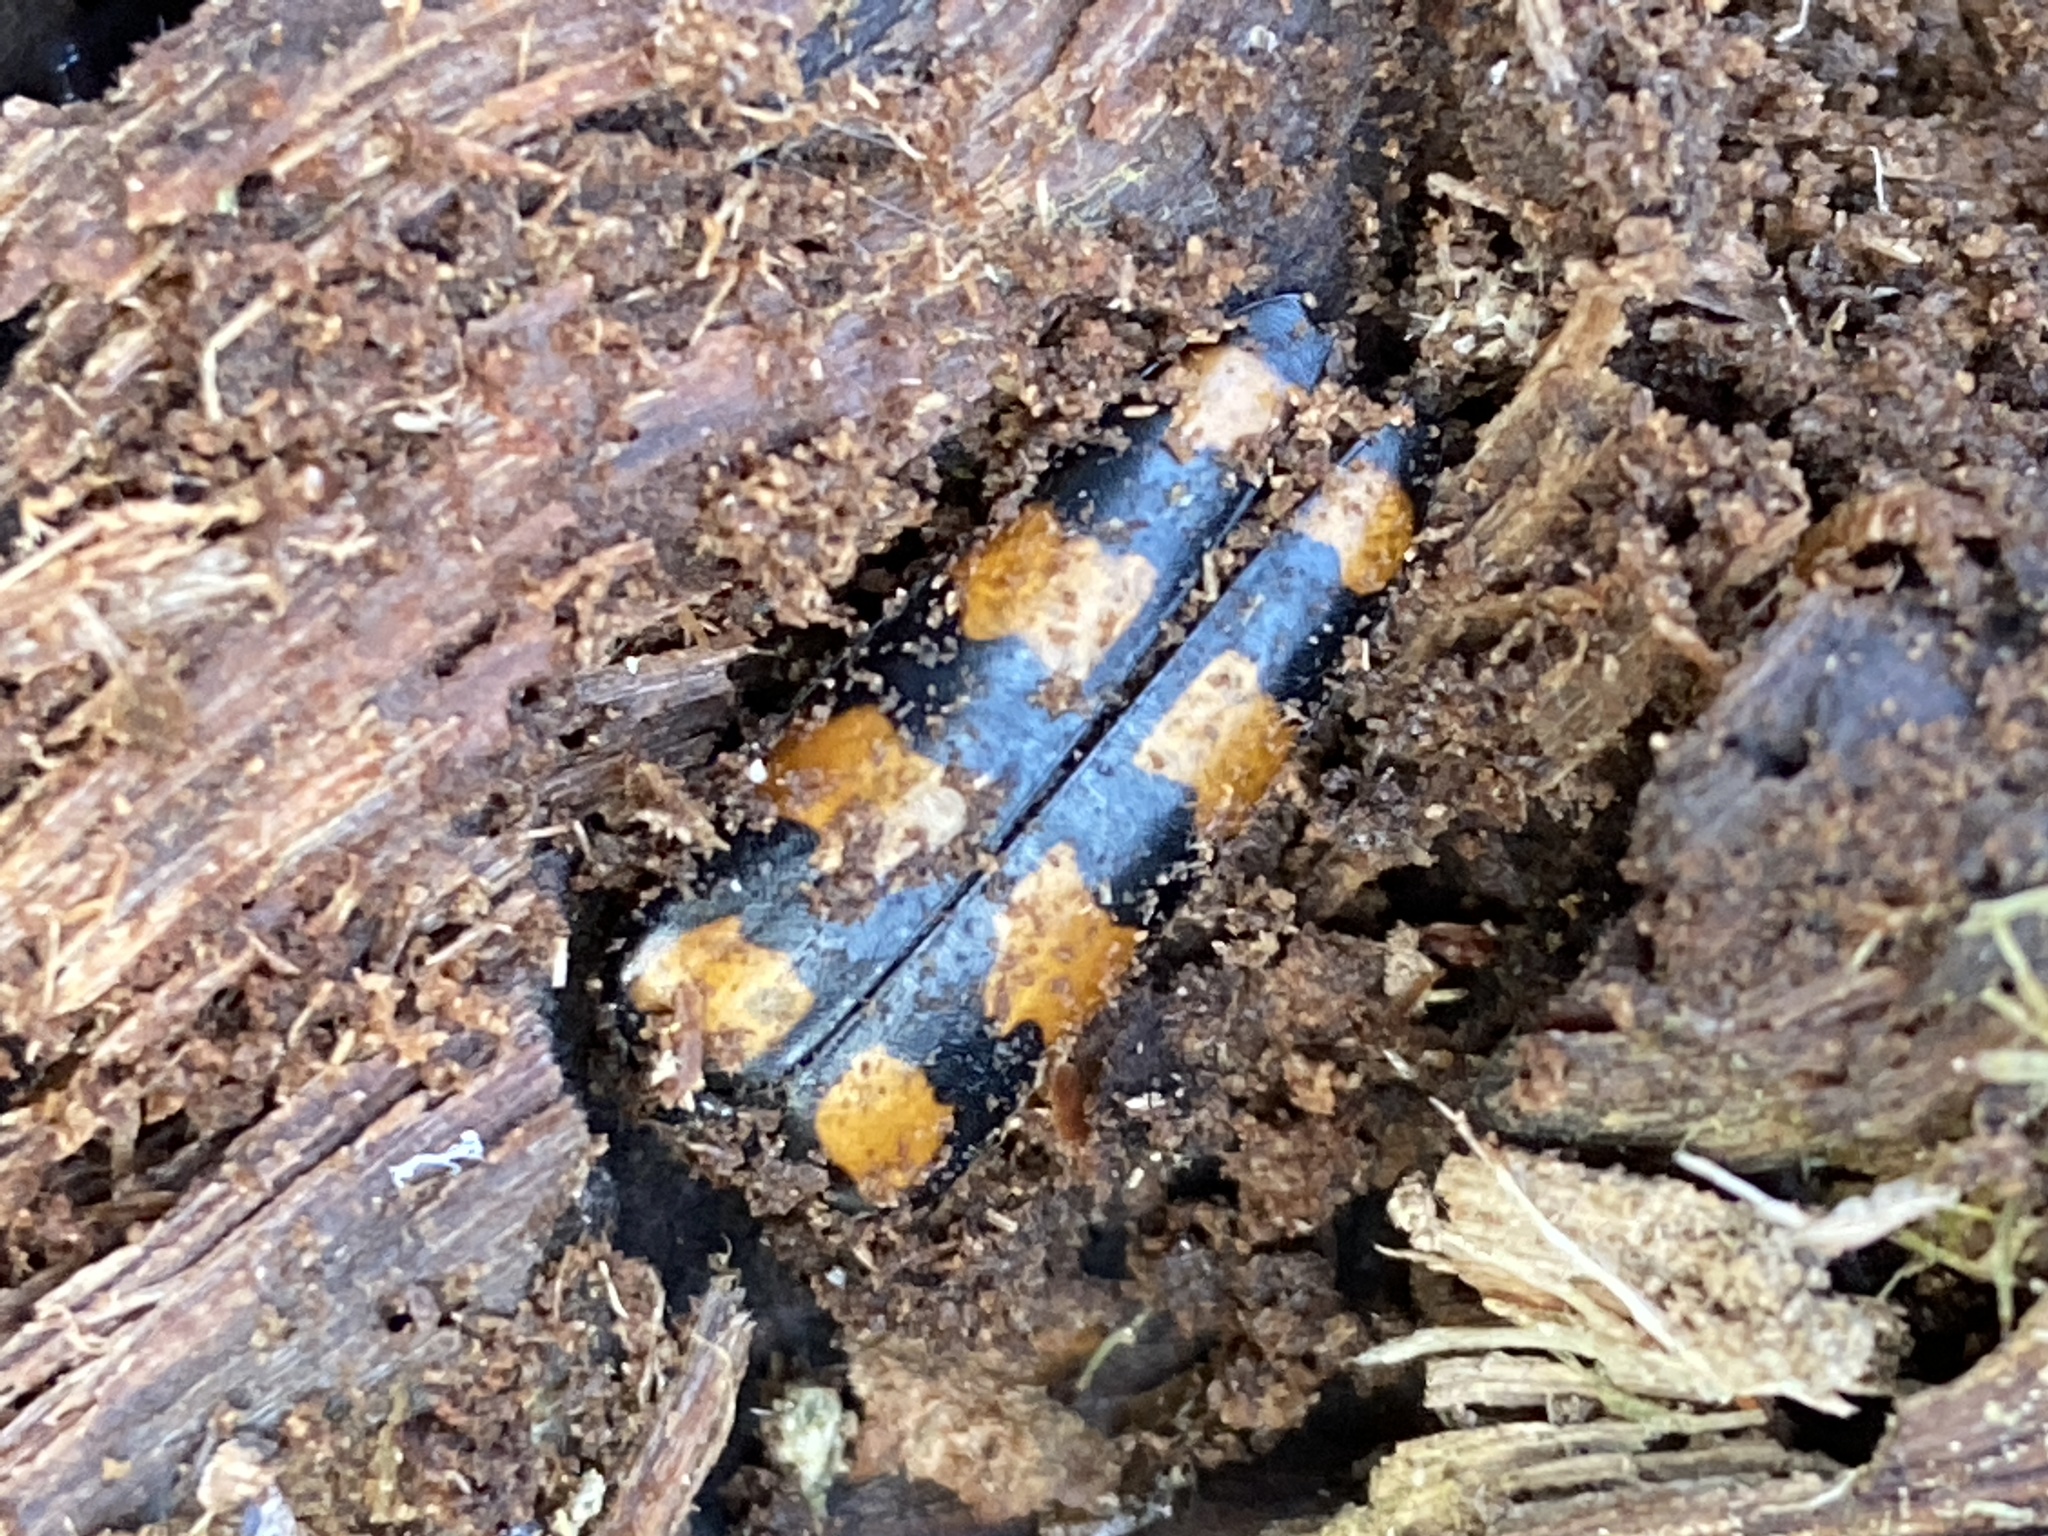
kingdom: Animalia
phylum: Arthropoda
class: Insecta
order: Coleoptera
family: Cerambycidae
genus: Leptura
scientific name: Leptura quadrifasciata
